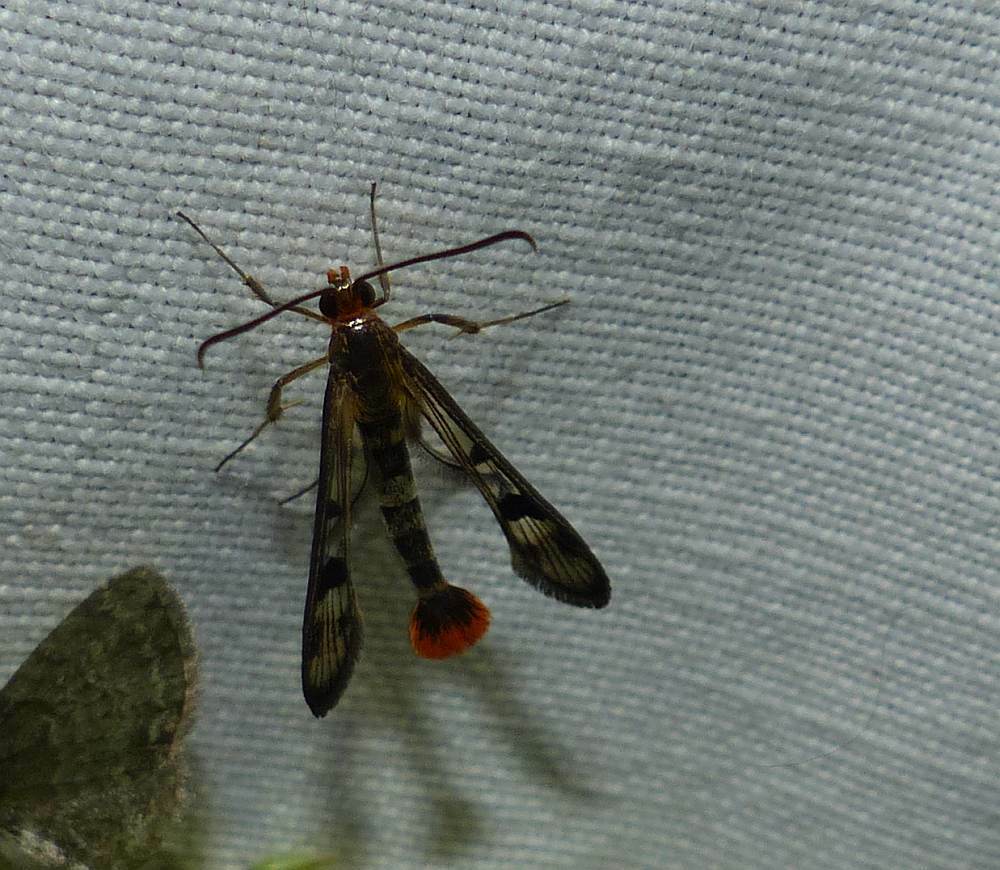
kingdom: Animalia
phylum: Arthropoda
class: Insecta
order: Lepidoptera
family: Sesiidae
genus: Synanthedon
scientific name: Synanthedon acerni
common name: Maple callus borer moth
